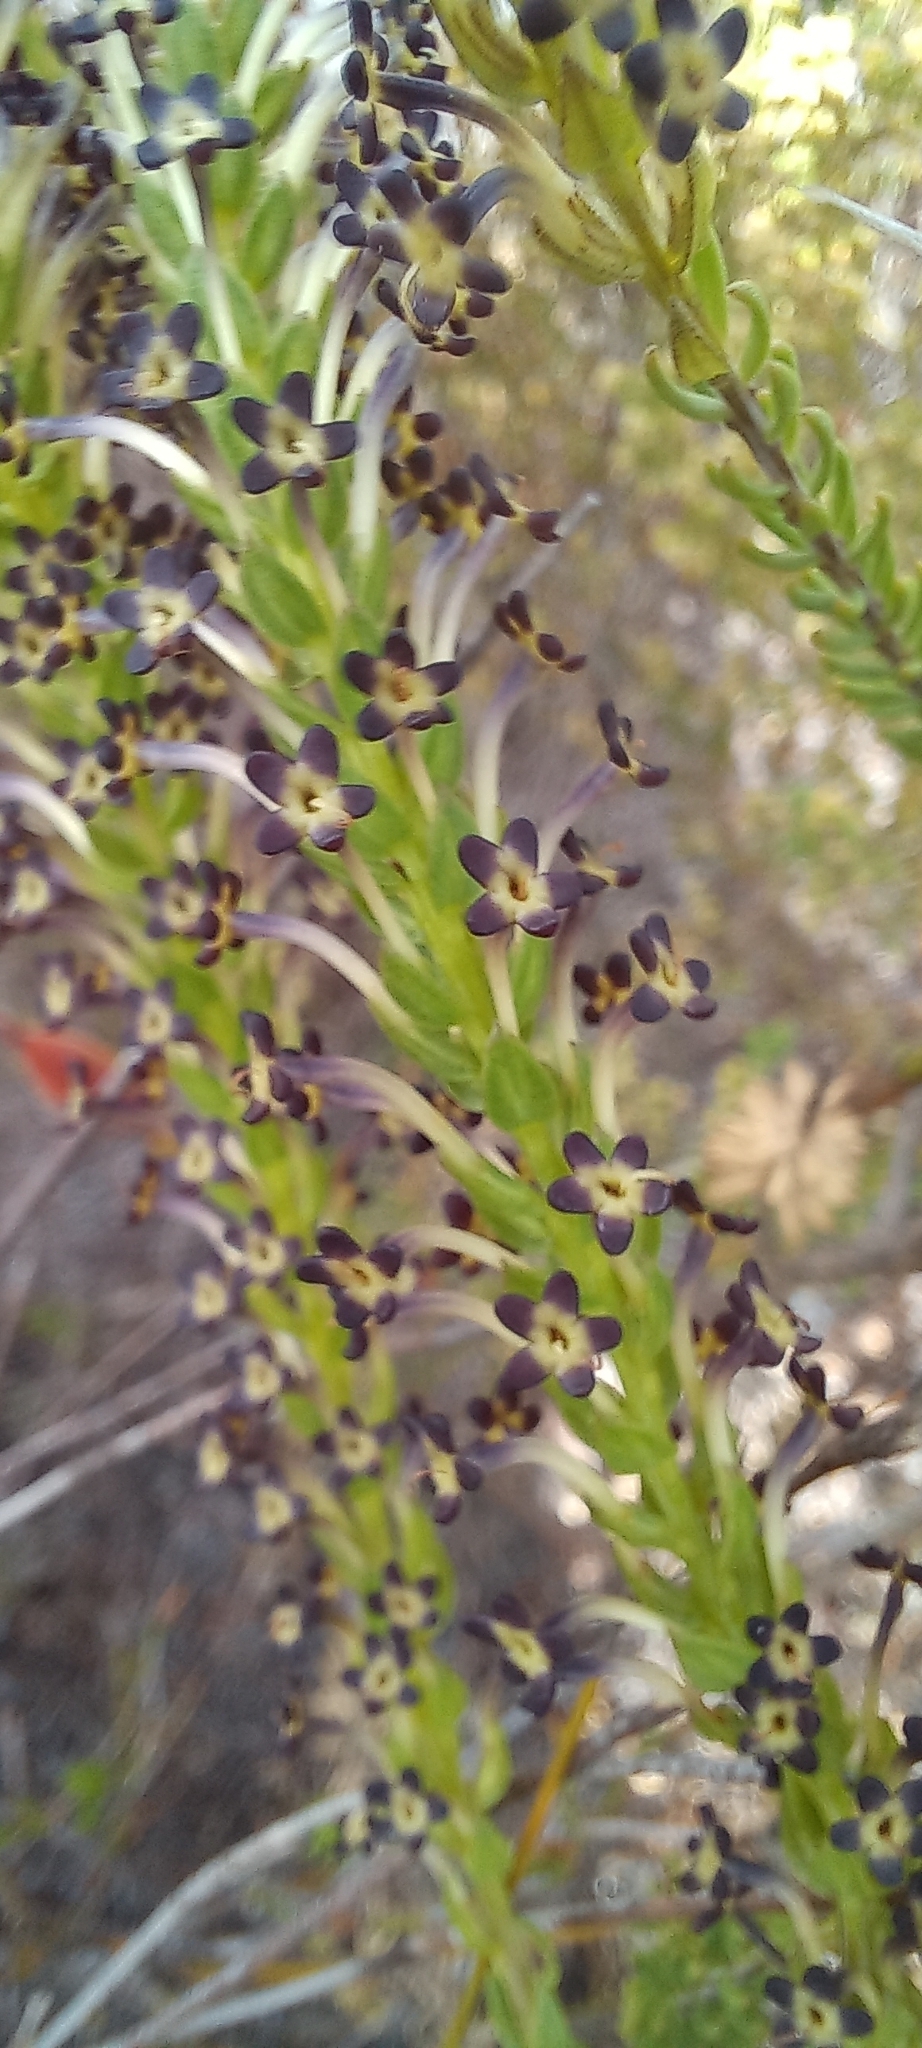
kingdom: Plantae
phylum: Tracheophyta
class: Magnoliopsida
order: Lamiales
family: Scrophulariaceae
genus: Microdon
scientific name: Microdon dubius
